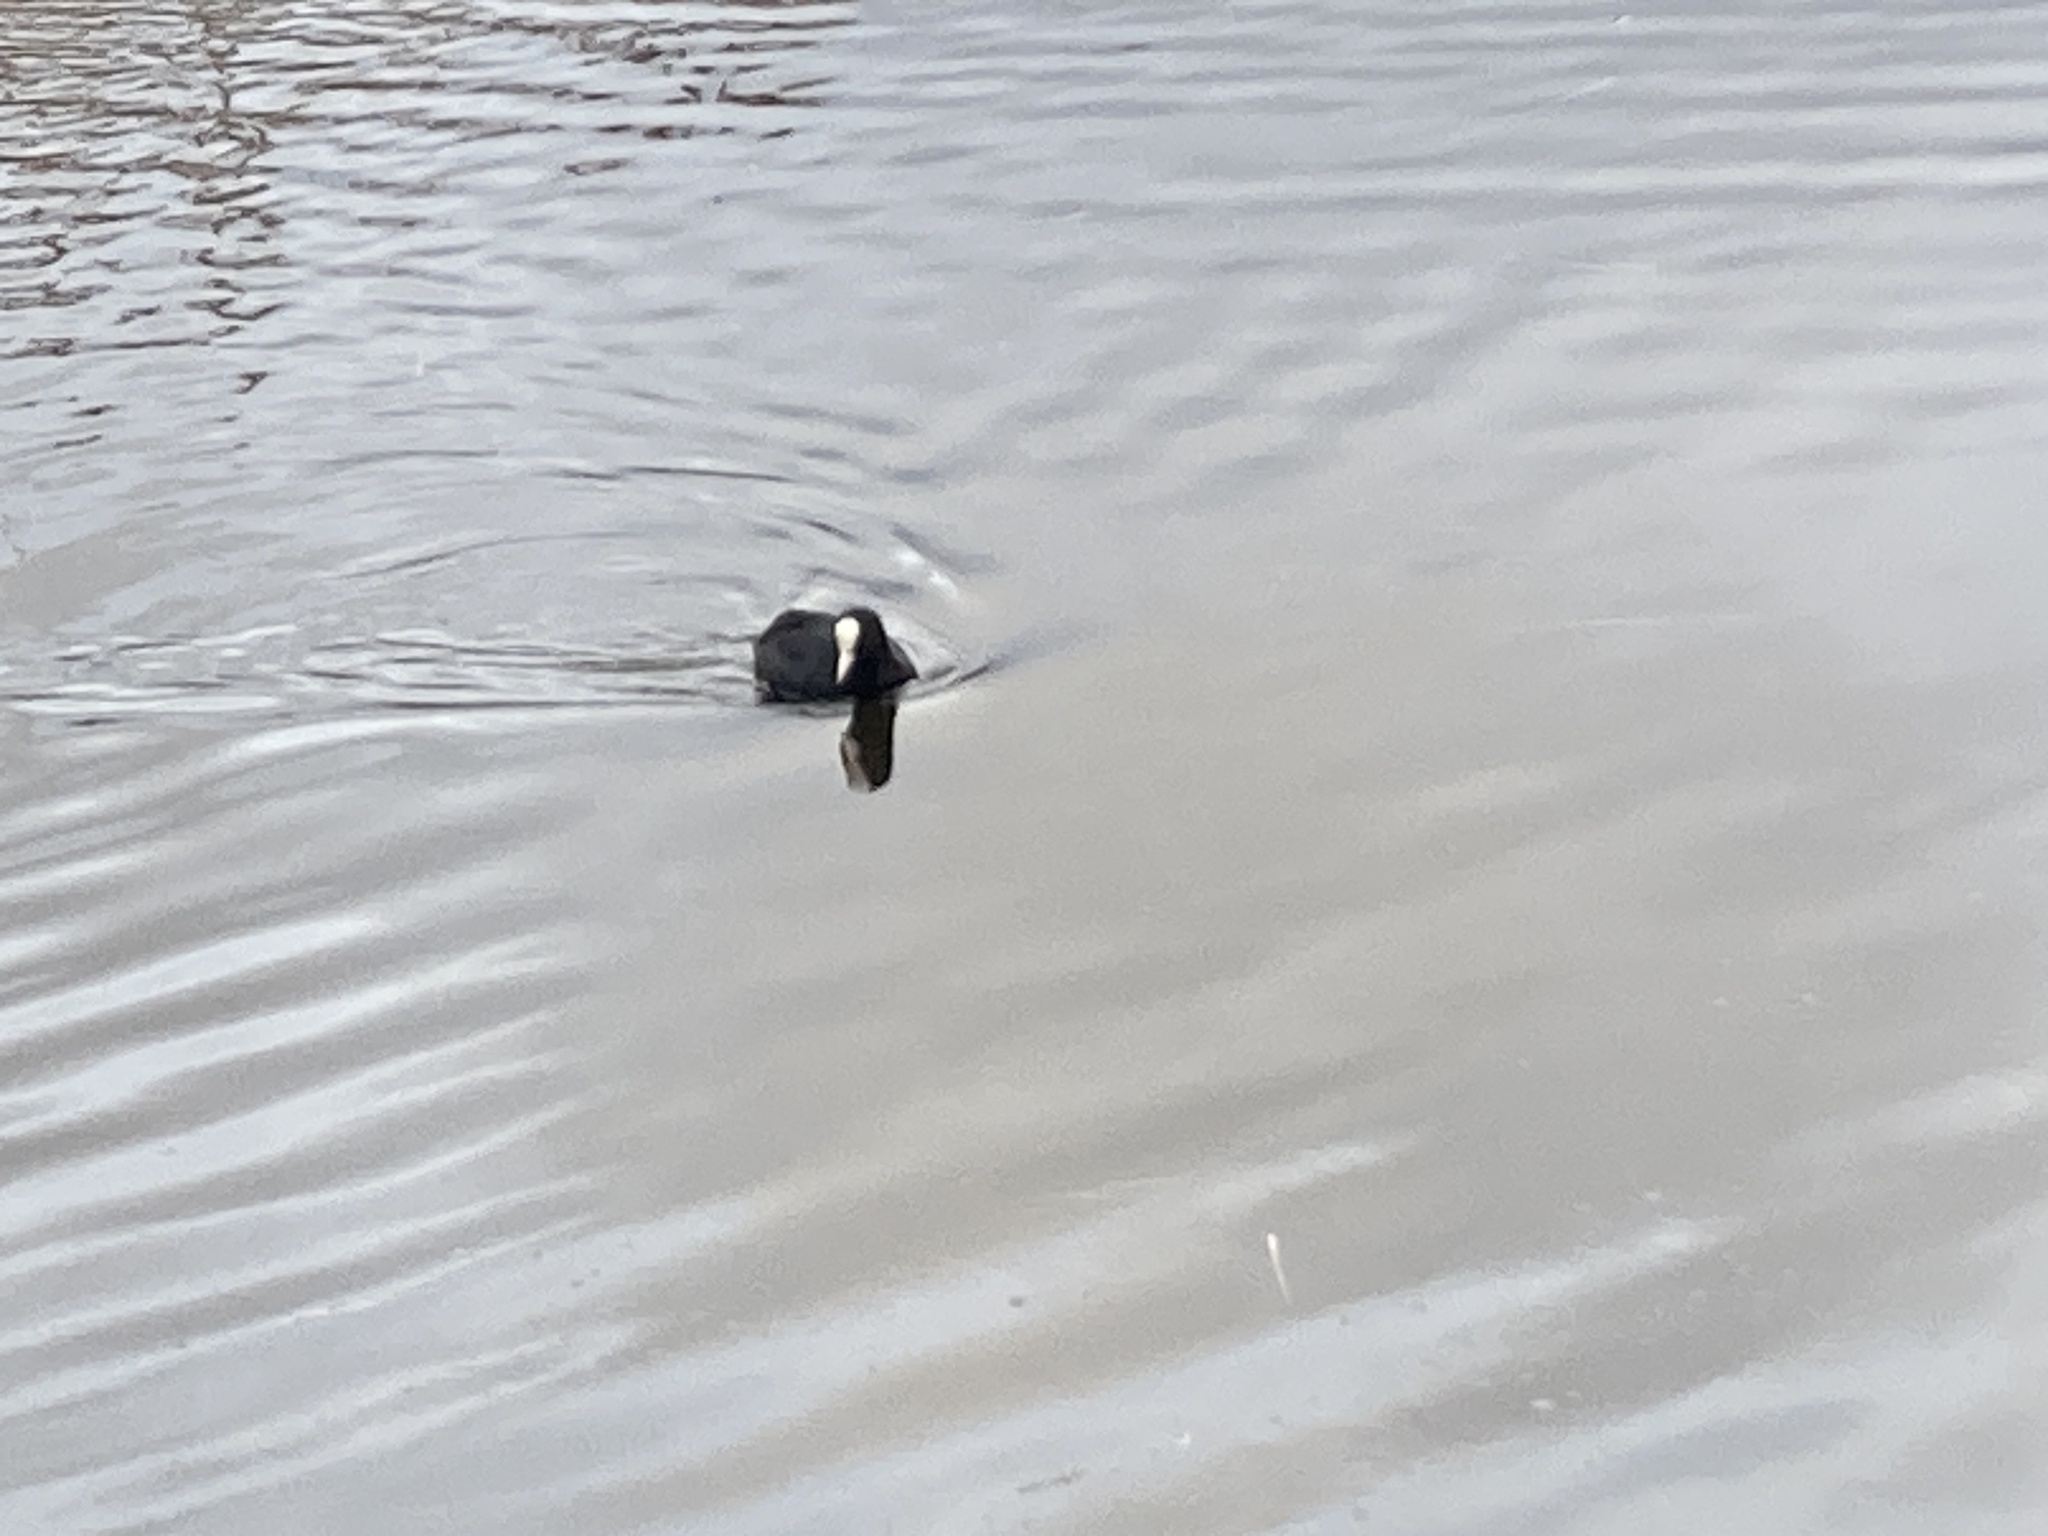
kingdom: Animalia
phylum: Chordata
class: Aves
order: Gruiformes
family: Rallidae
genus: Fulica
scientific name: Fulica atra
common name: Eurasian coot
